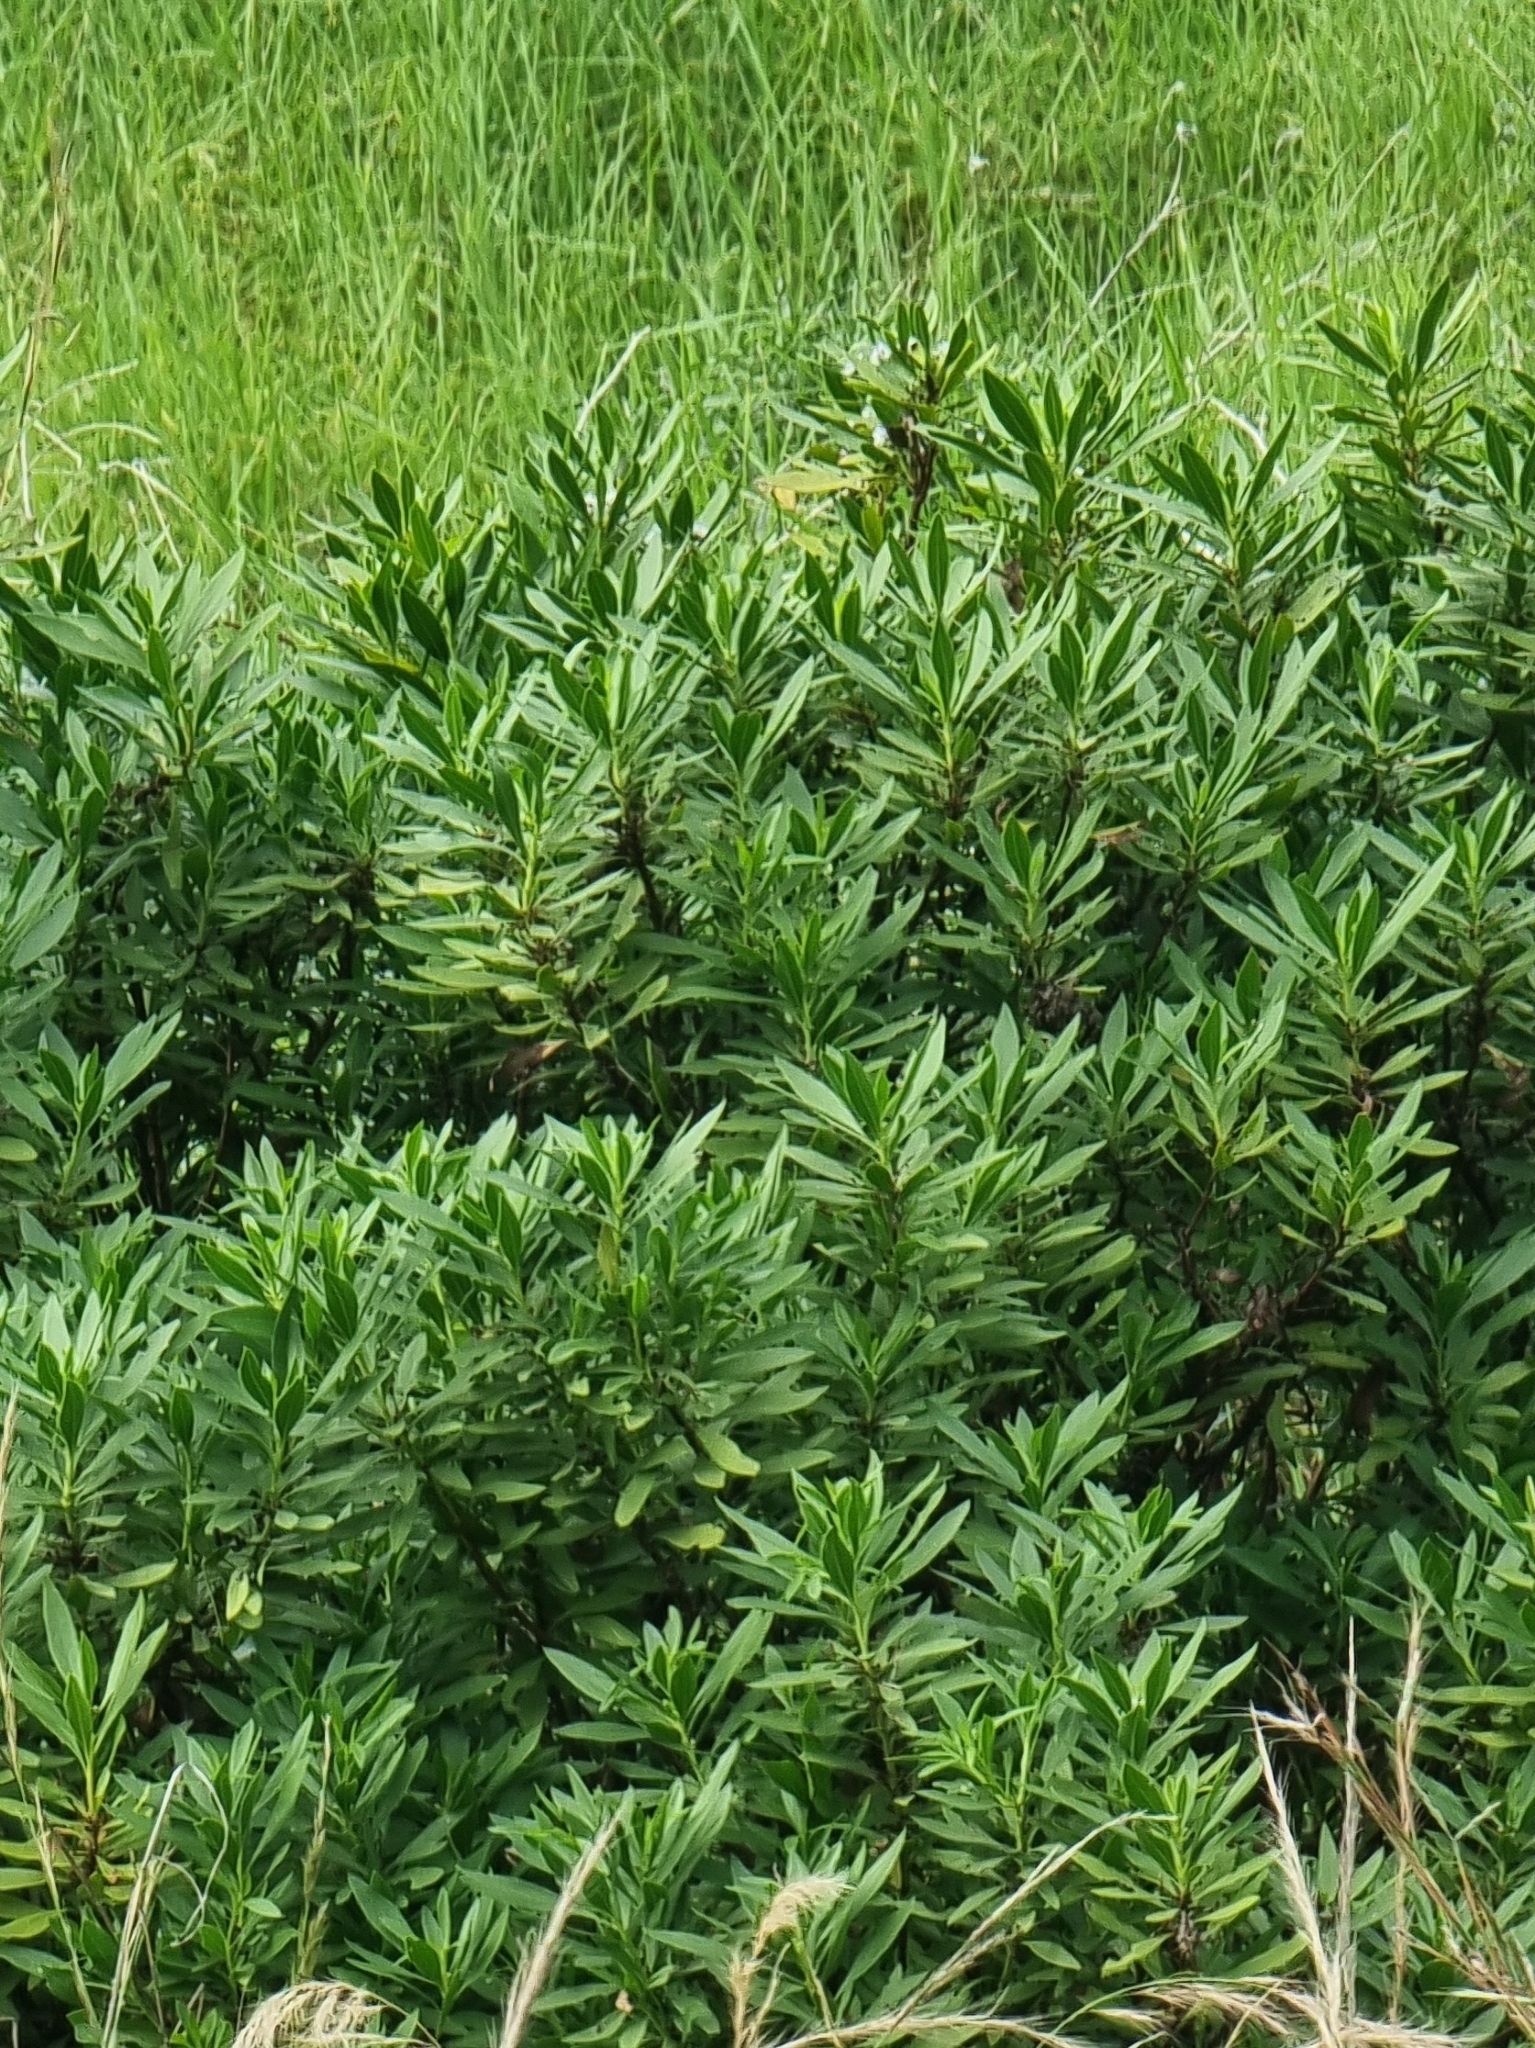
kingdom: Plantae
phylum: Tracheophyta
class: Magnoliopsida
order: Lamiales
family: Plantaginaceae
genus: Globularia
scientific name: Globularia salicina
